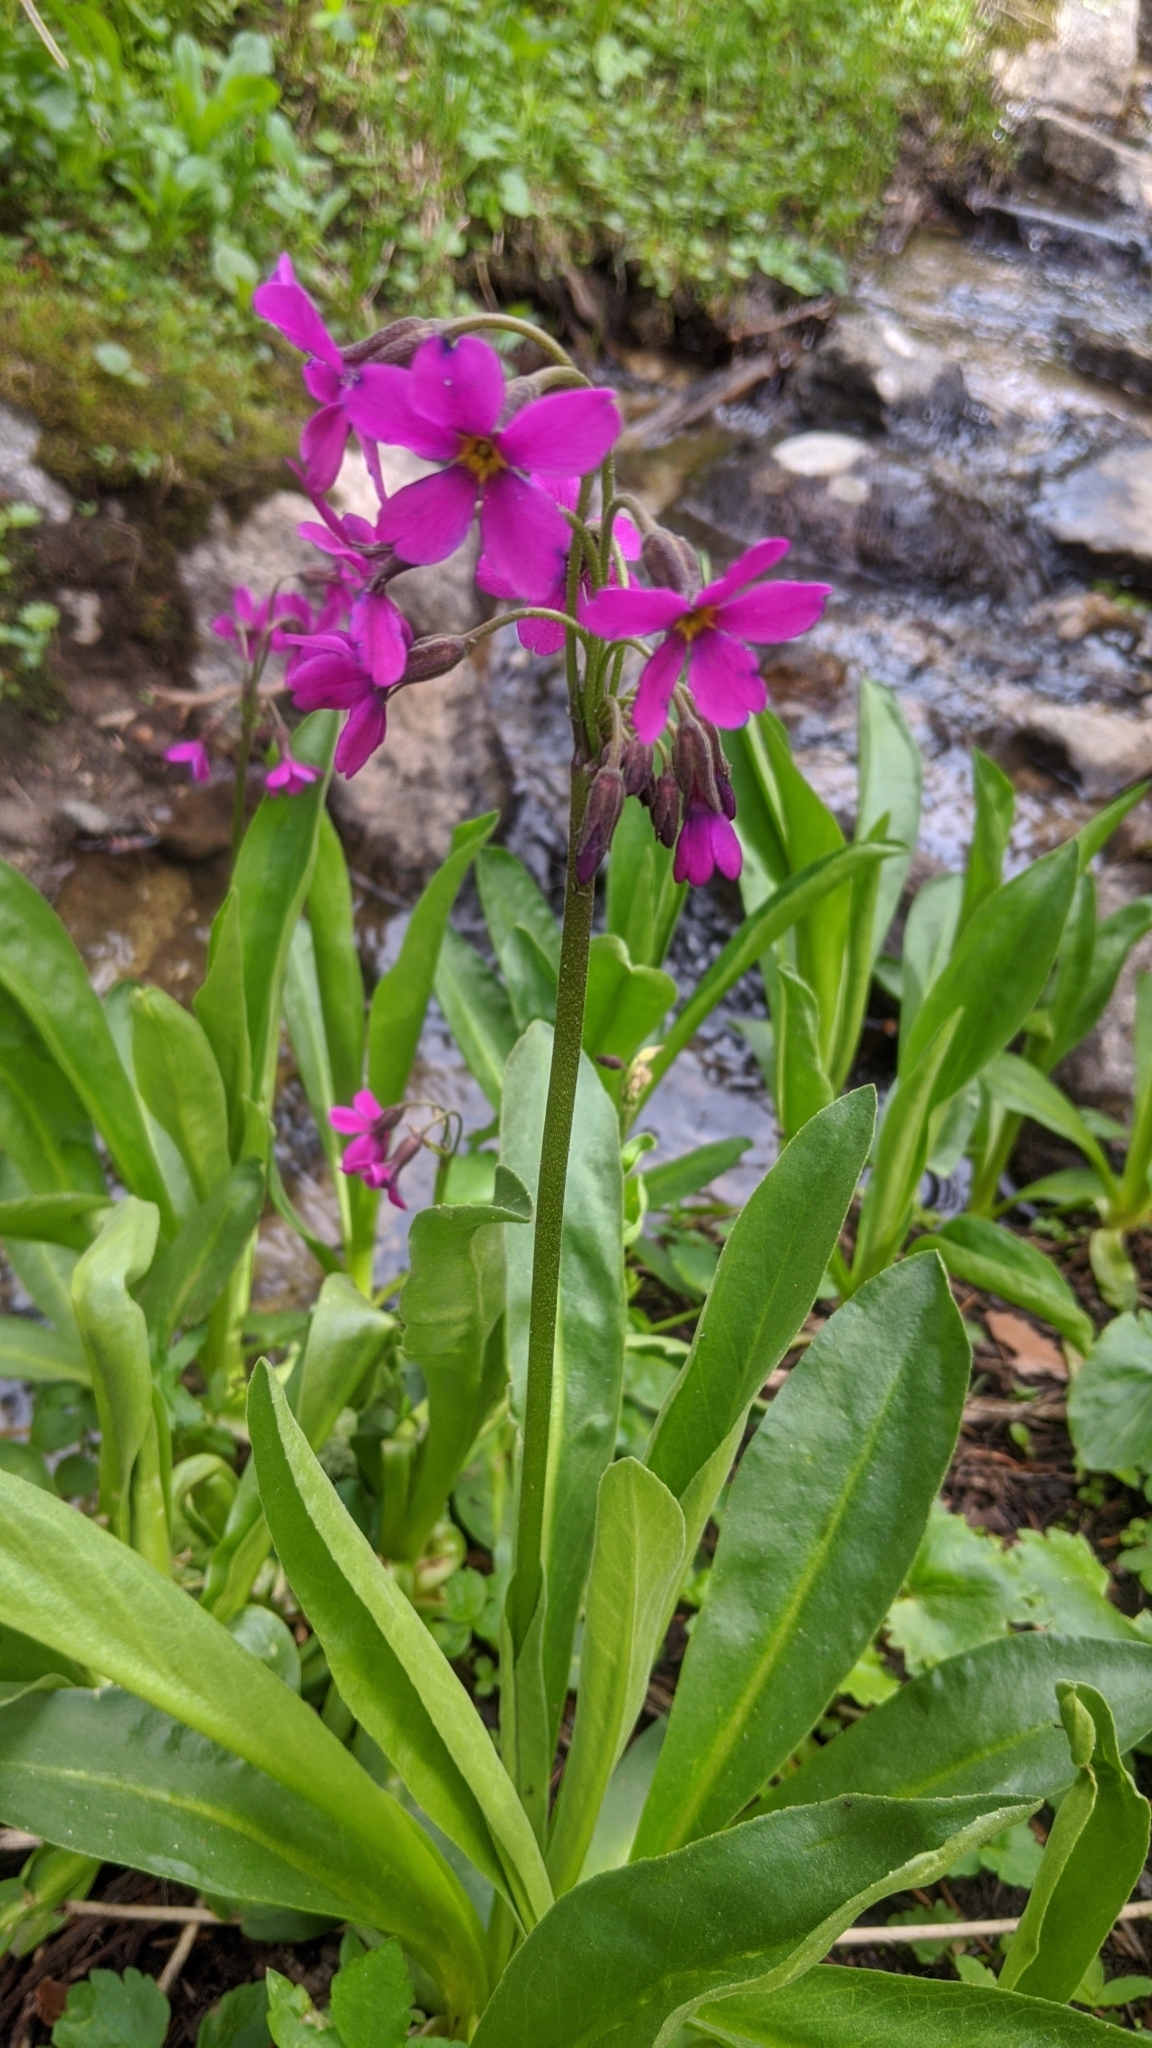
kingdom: Plantae
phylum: Tracheophyta
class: Magnoliopsida
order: Ericales
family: Primulaceae
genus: Primula
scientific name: Primula parryi
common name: Parry's primrose
